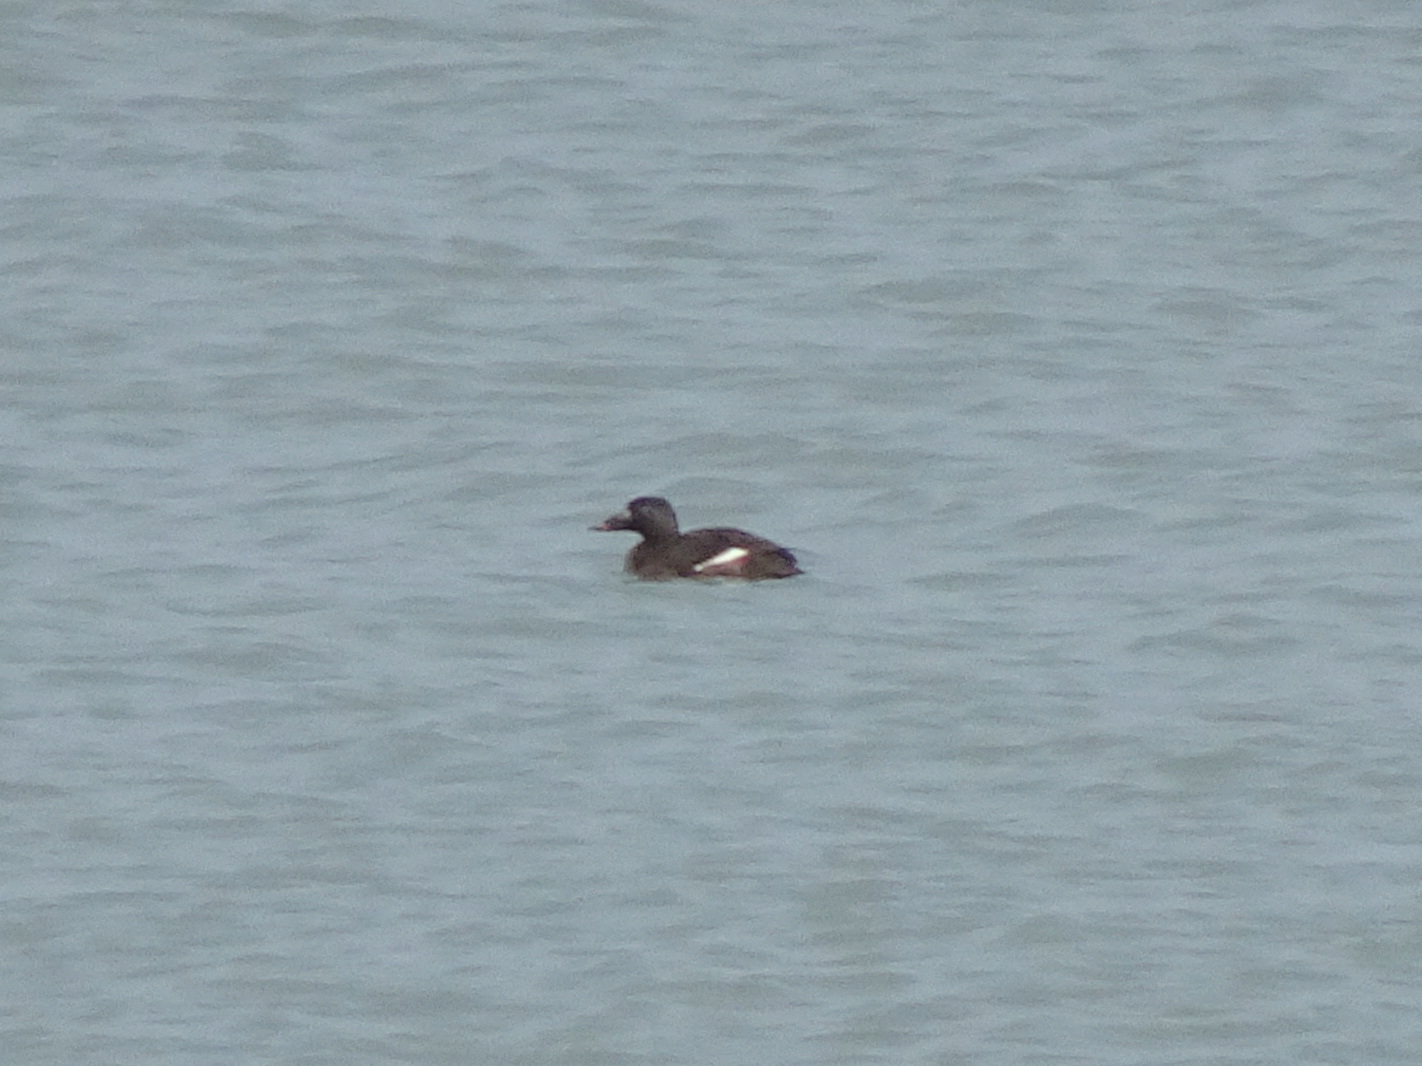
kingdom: Animalia
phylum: Chordata
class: Aves
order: Anseriformes
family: Anatidae
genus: Melanitta
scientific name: Melanitta deglandi
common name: White-winged scoter
